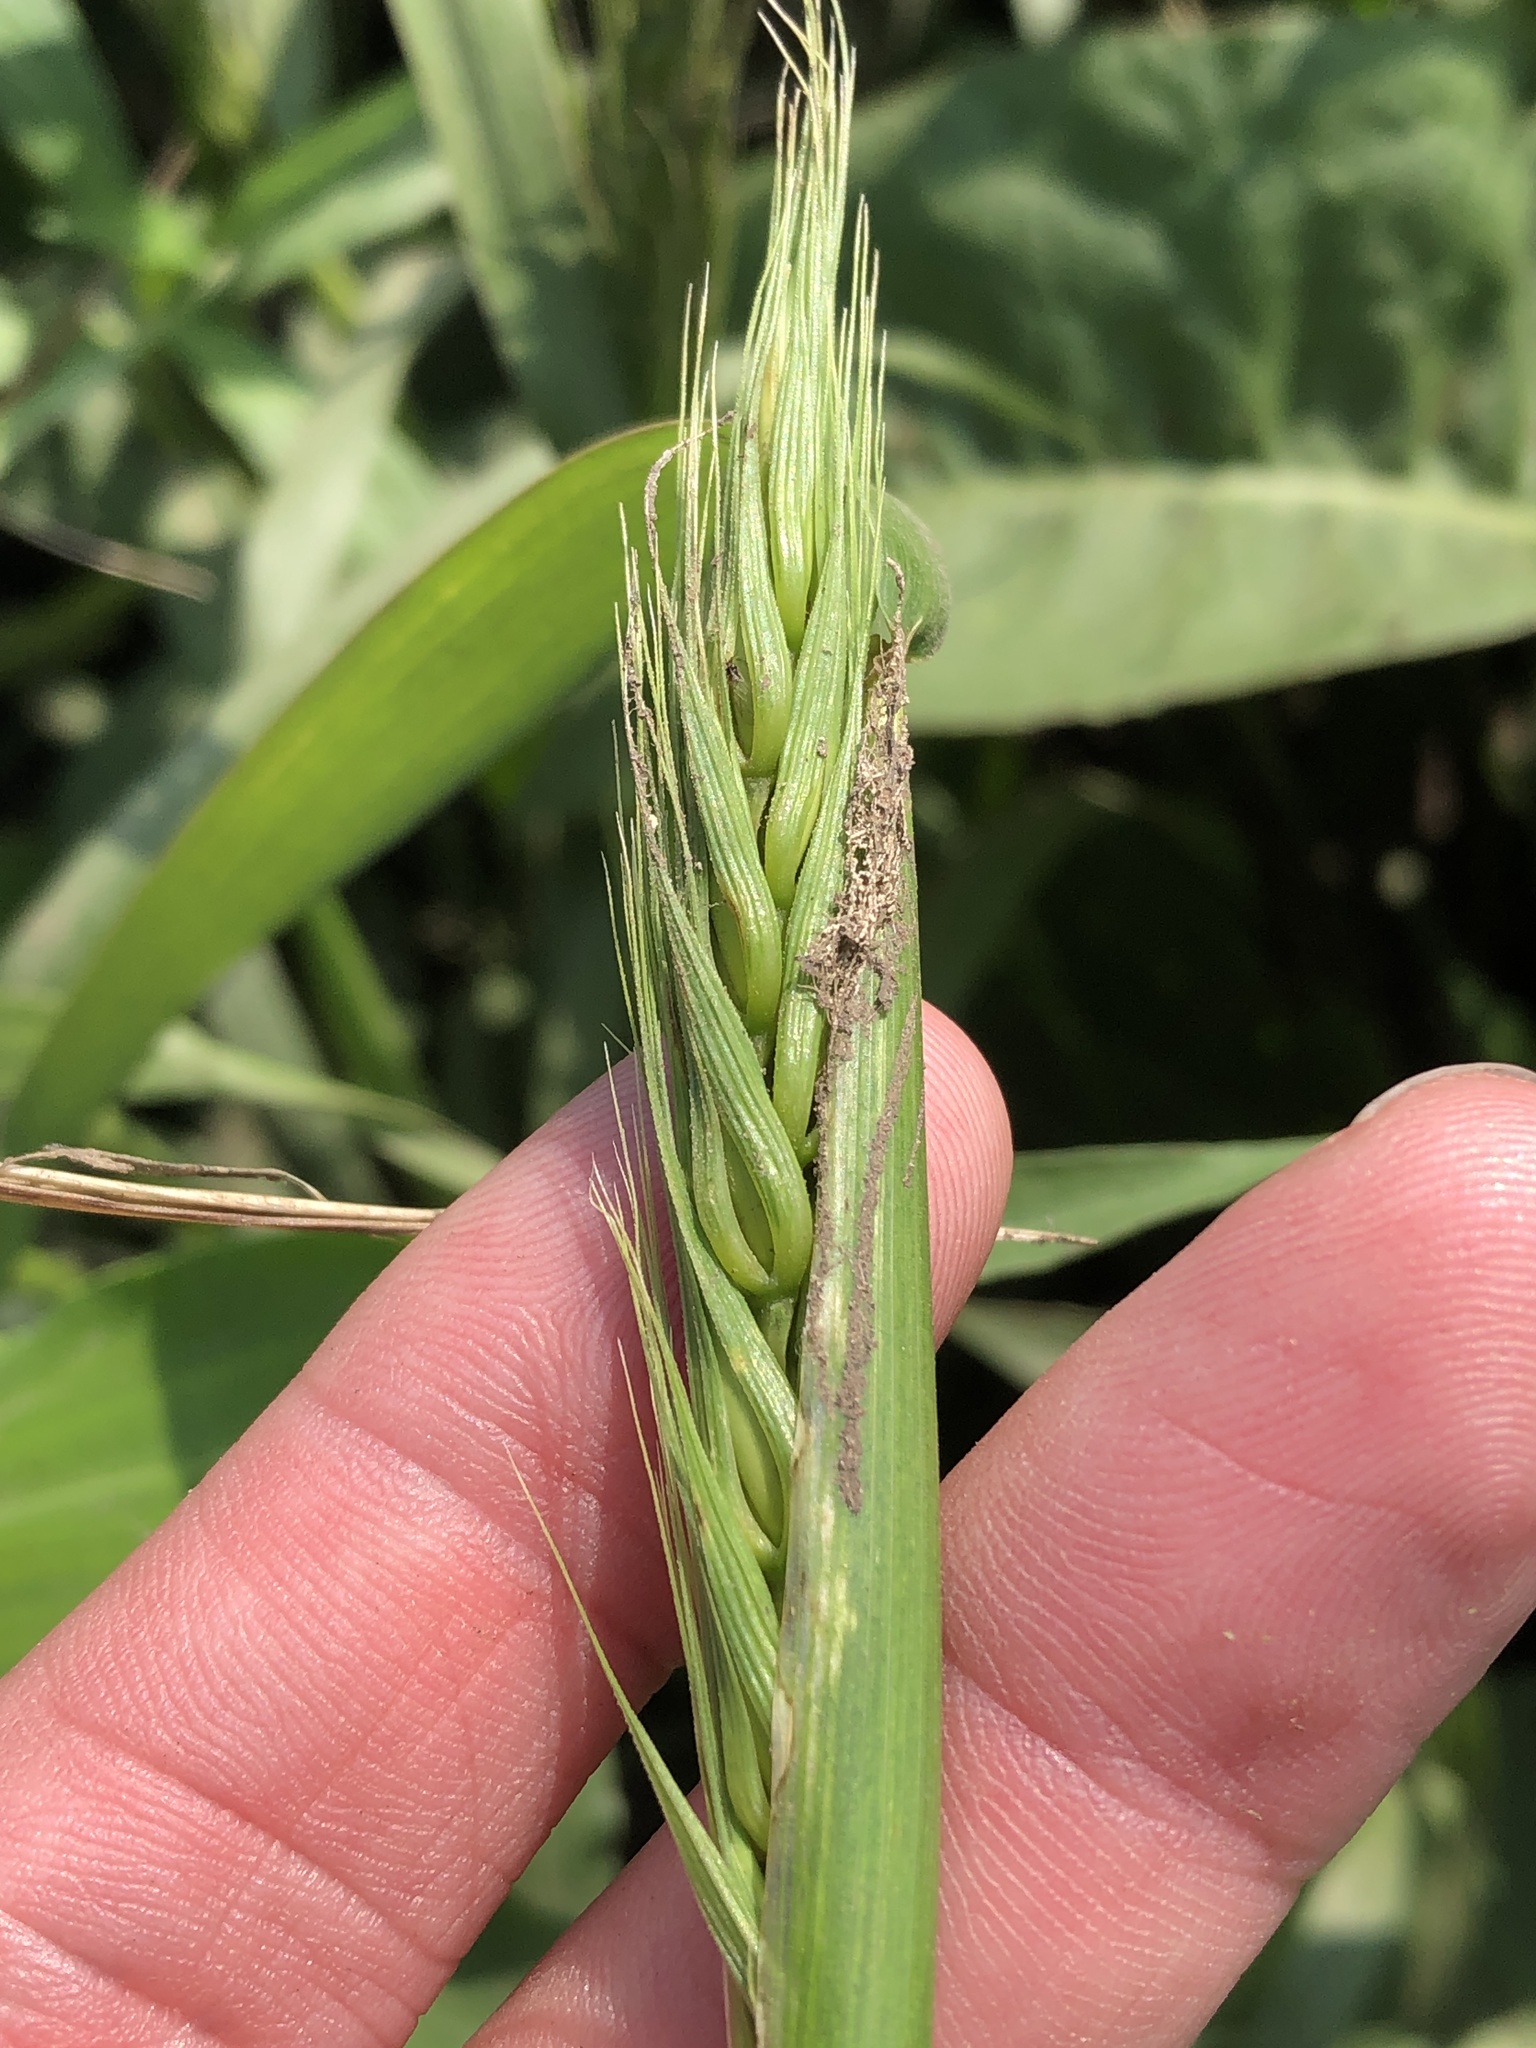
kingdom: Plantae
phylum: Tracheophyta
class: Liliopsida
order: Poales
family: Poaceae
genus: Elymus
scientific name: Elymus virginicus
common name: Common eastern wildrye
